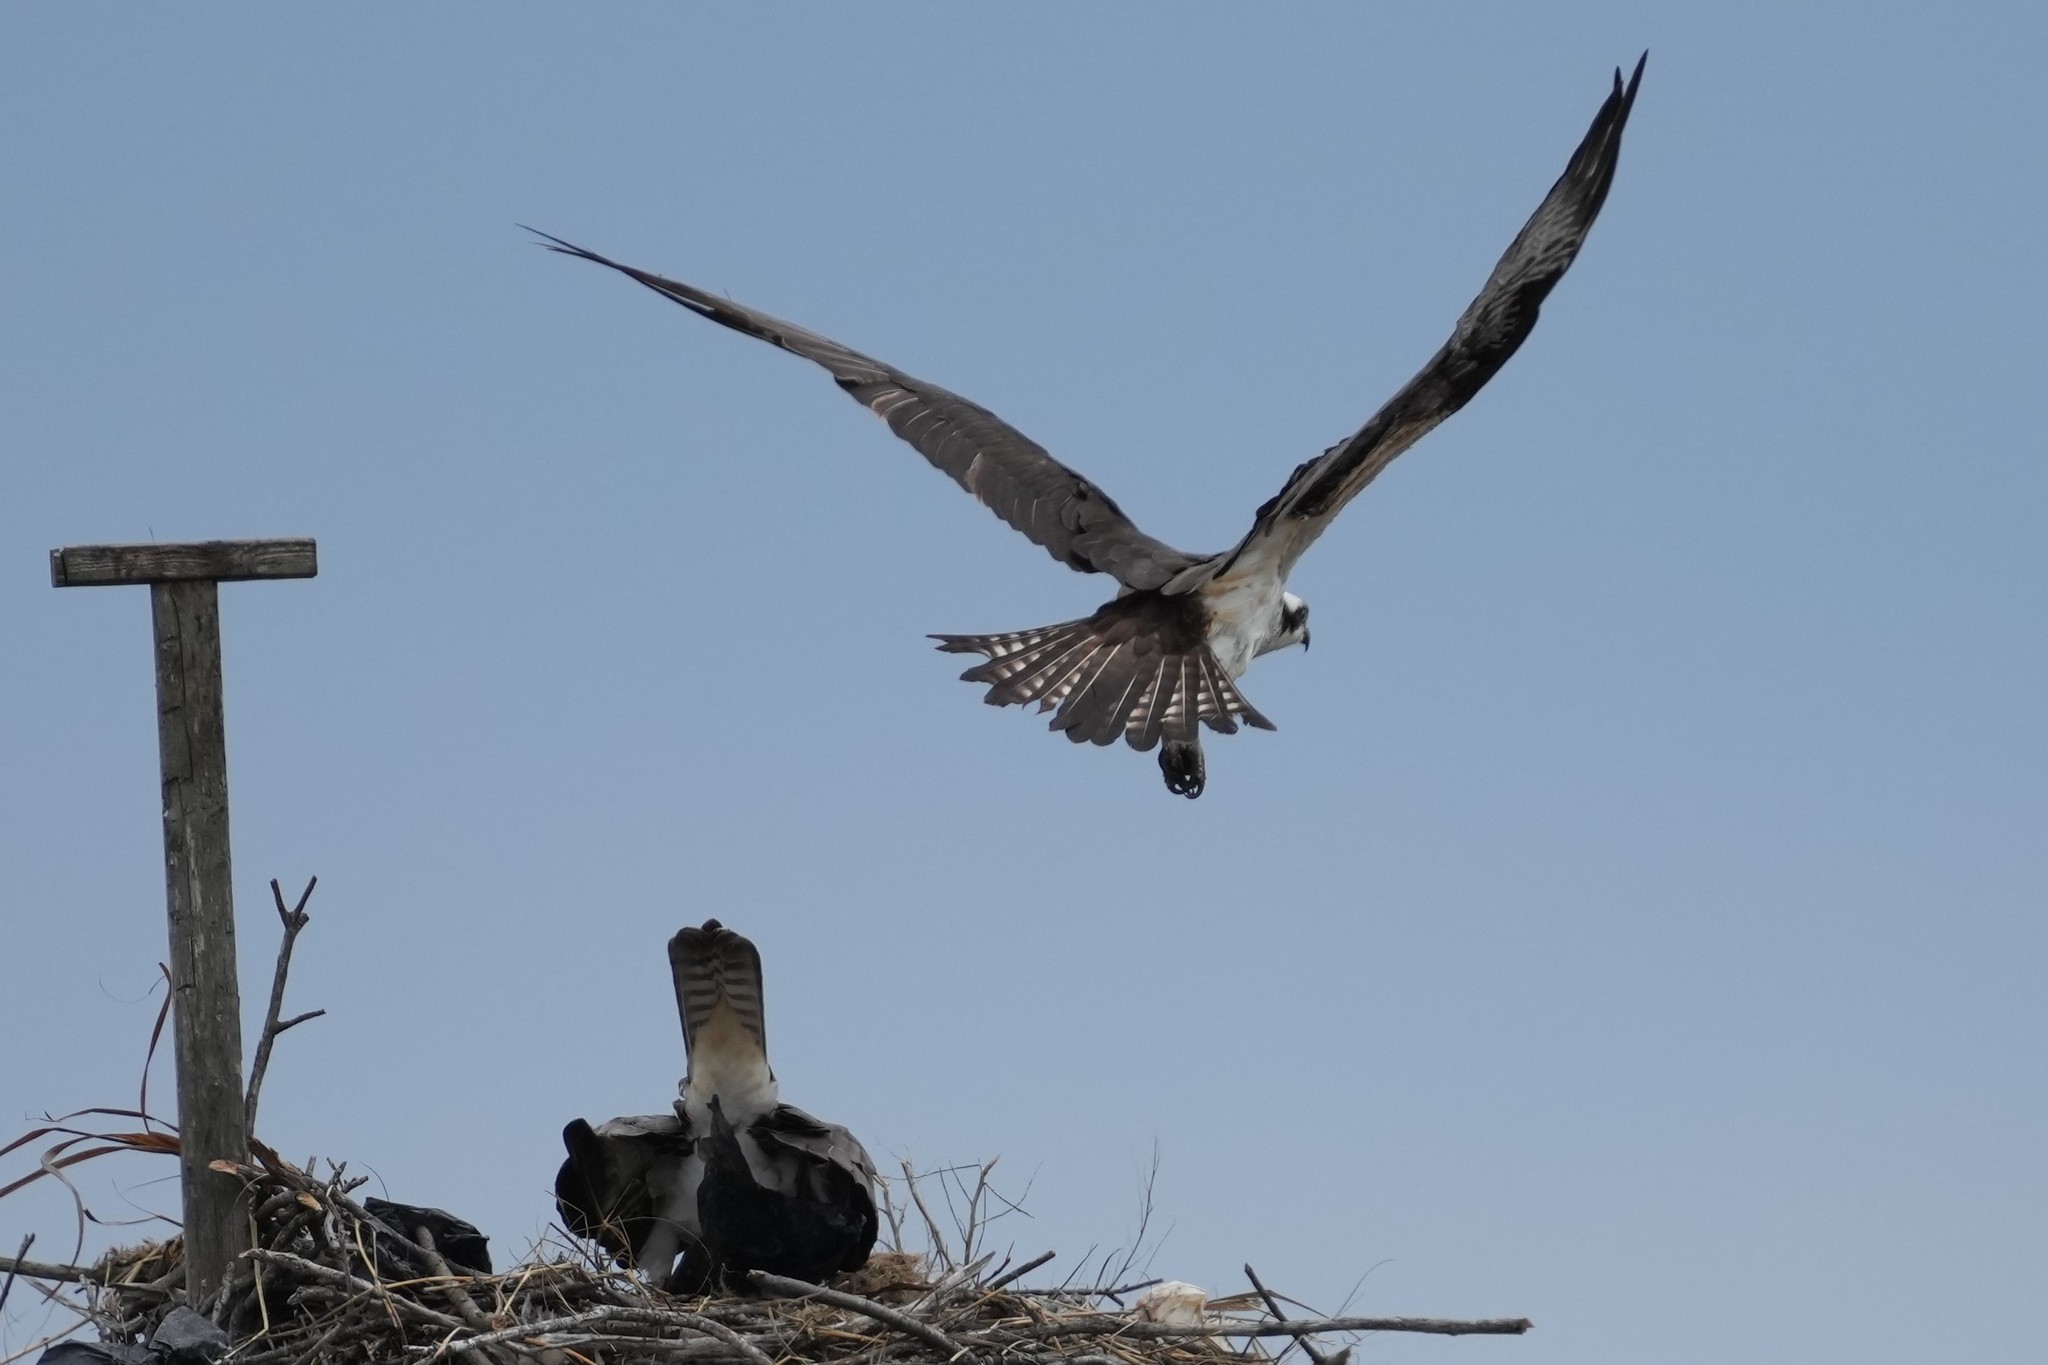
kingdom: Animalia
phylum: Chordata
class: Aves
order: Accipitriformes
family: Pandionidae
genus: Pandion
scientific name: Pandion haliaetus
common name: Osprey
